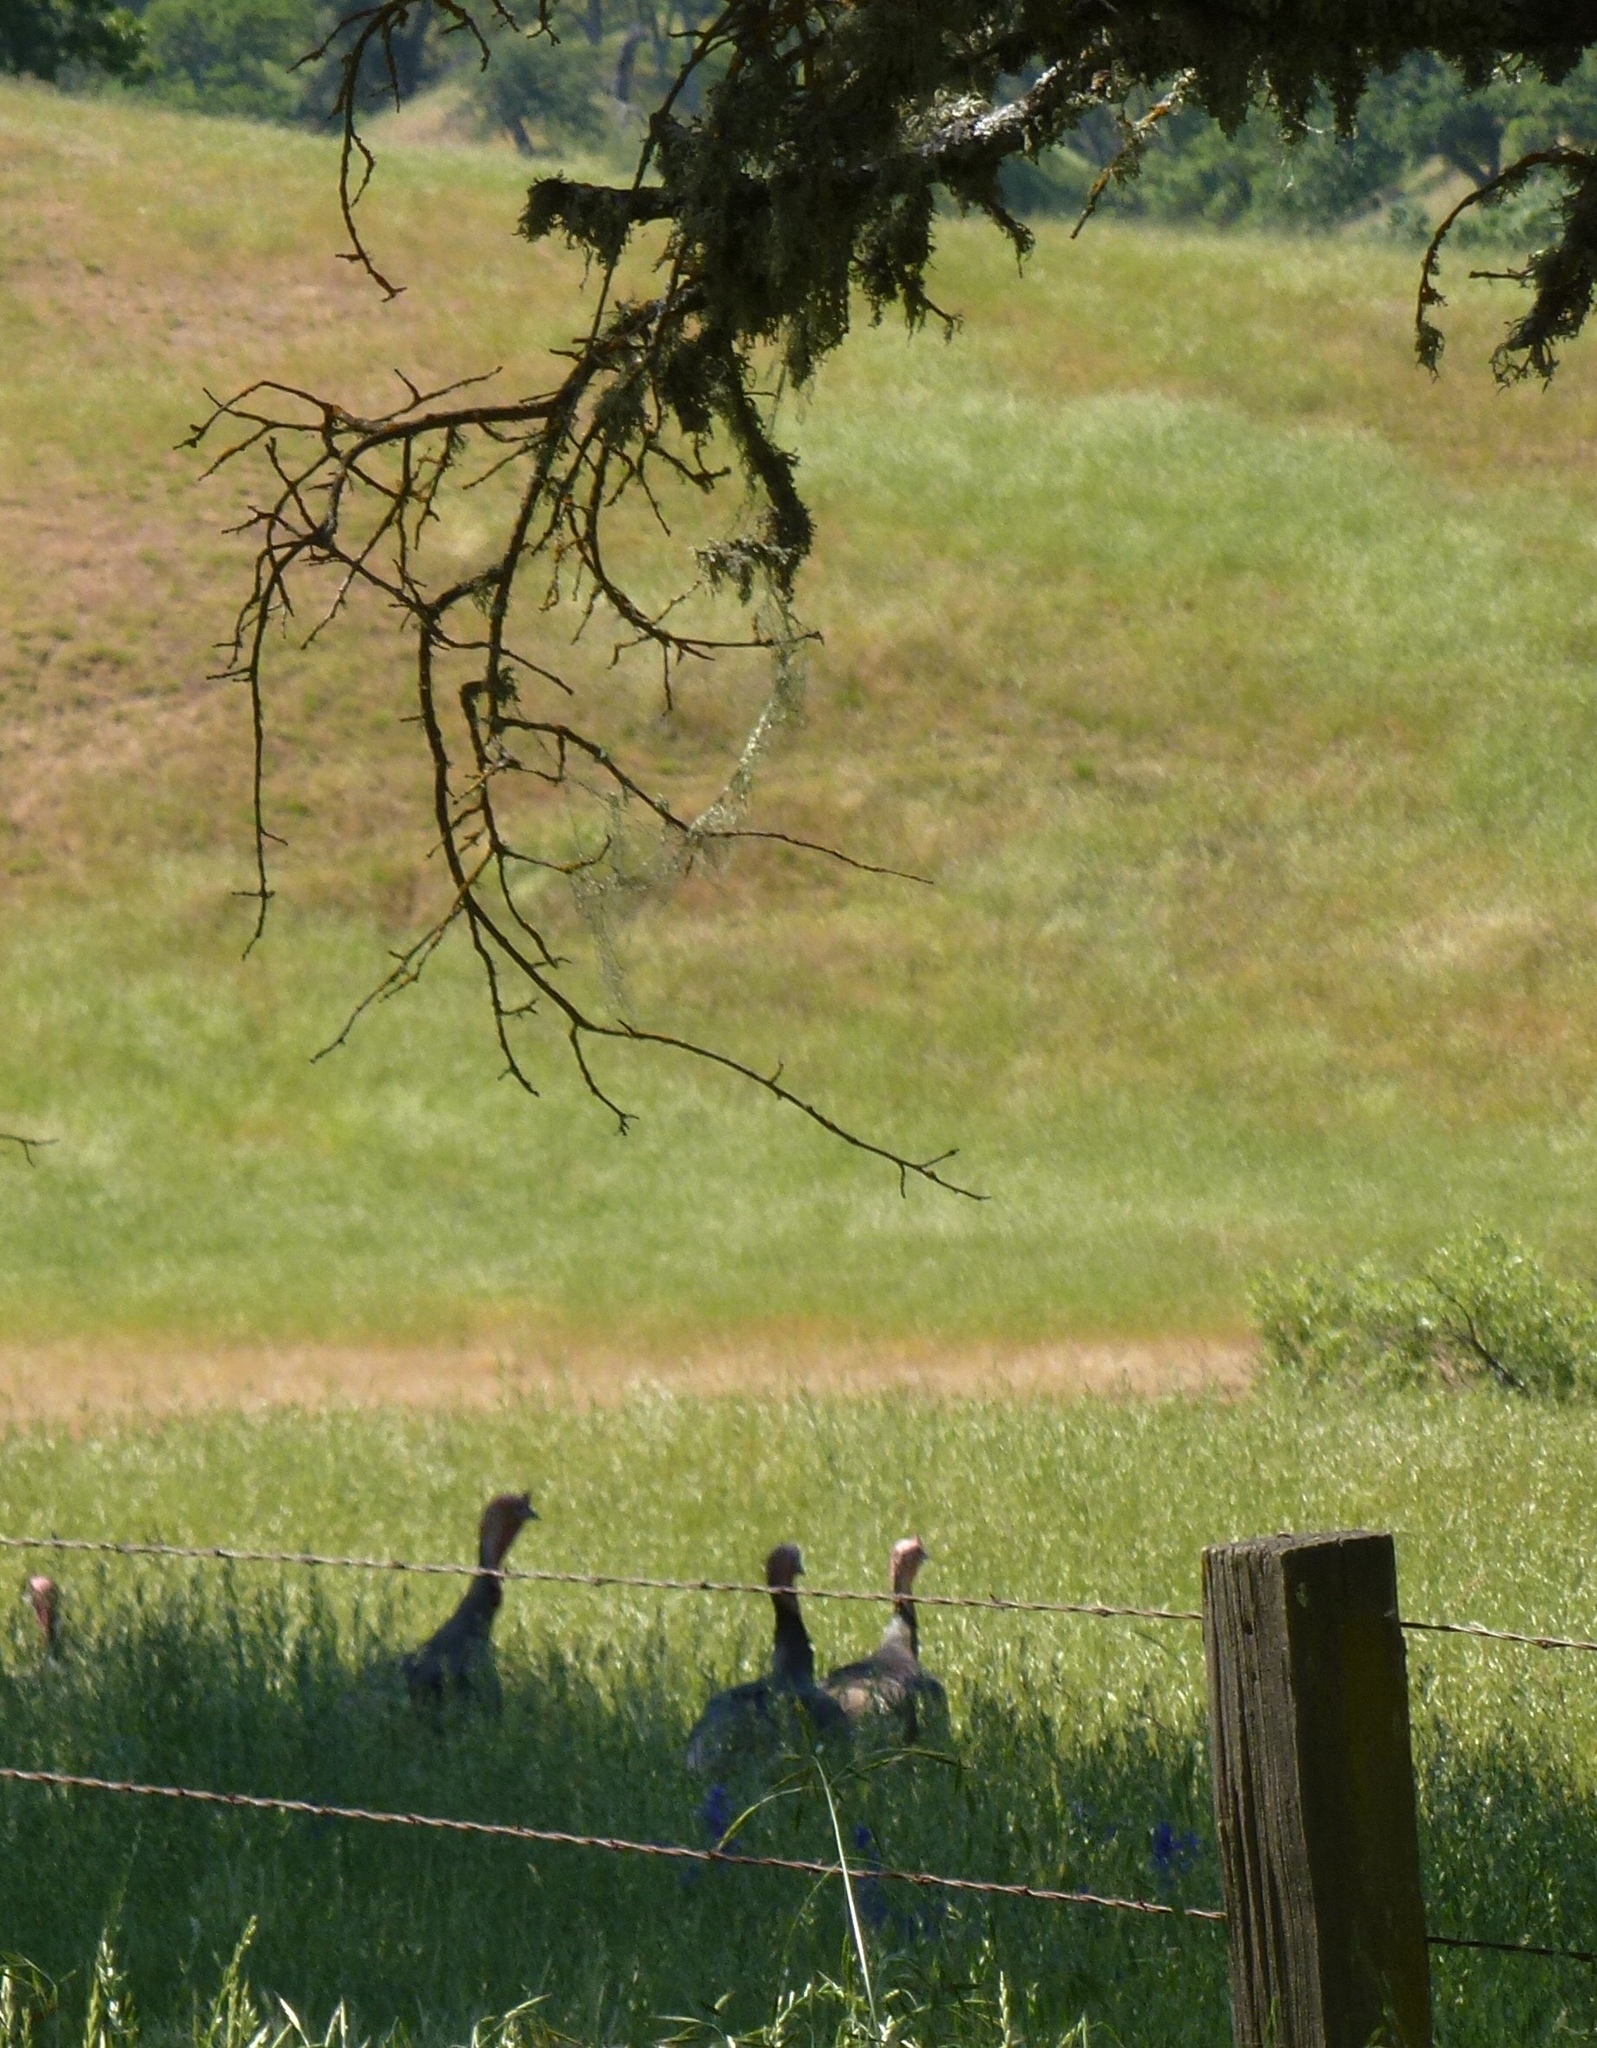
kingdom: Animalia
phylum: Chordata
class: Aves
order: Galliformes
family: Phasianidae
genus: Meleagris
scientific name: Meleagris gallopavo
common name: Wild turkey
